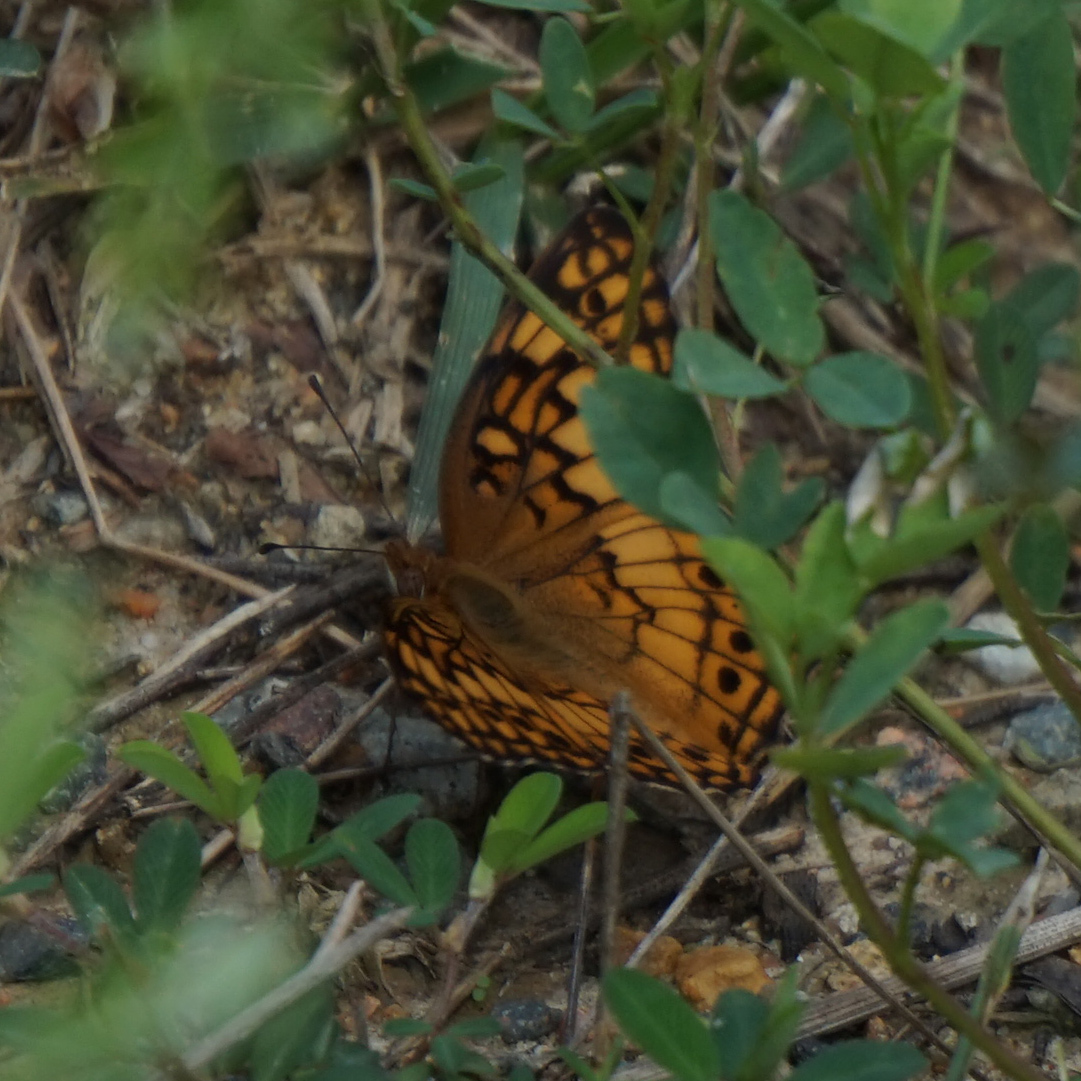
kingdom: Animalia
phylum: Arthropoda
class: Insecta
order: Lepidoptera
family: Nymphalidae
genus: Euptoieta
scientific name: Euptoieta claudia
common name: Variegated fritillary
